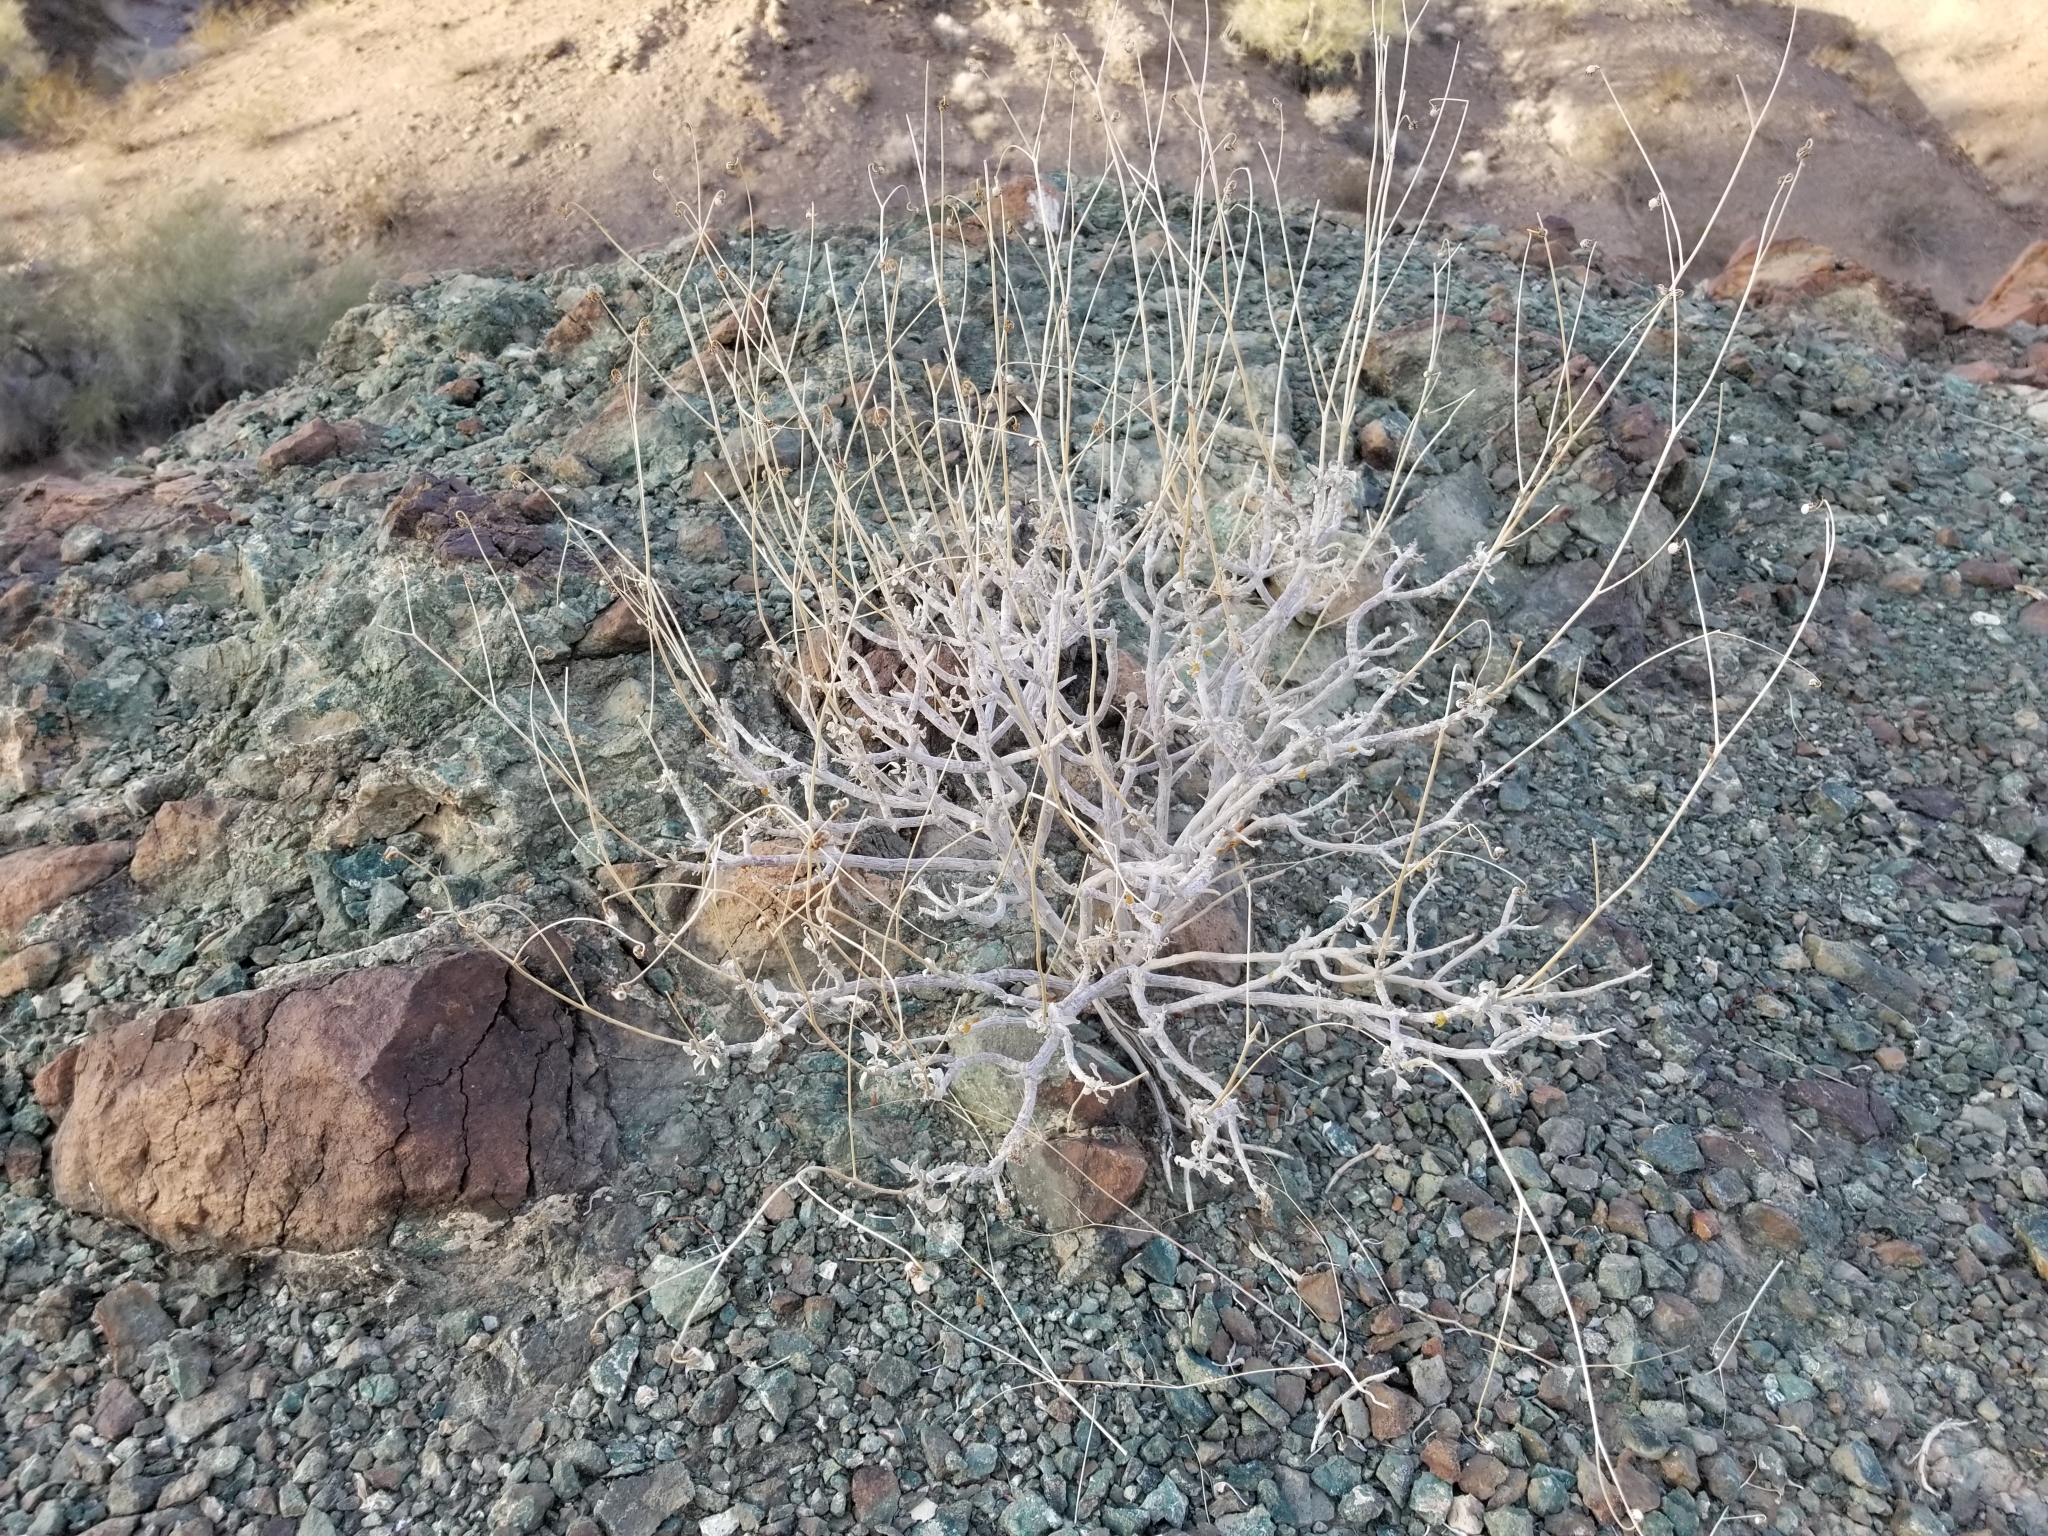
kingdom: Plantae
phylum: Tracheophyta
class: Magnoliopsida
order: Asterales
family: Asteraceae
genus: Encelia
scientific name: Encelia farinosa
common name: Brittlebush
